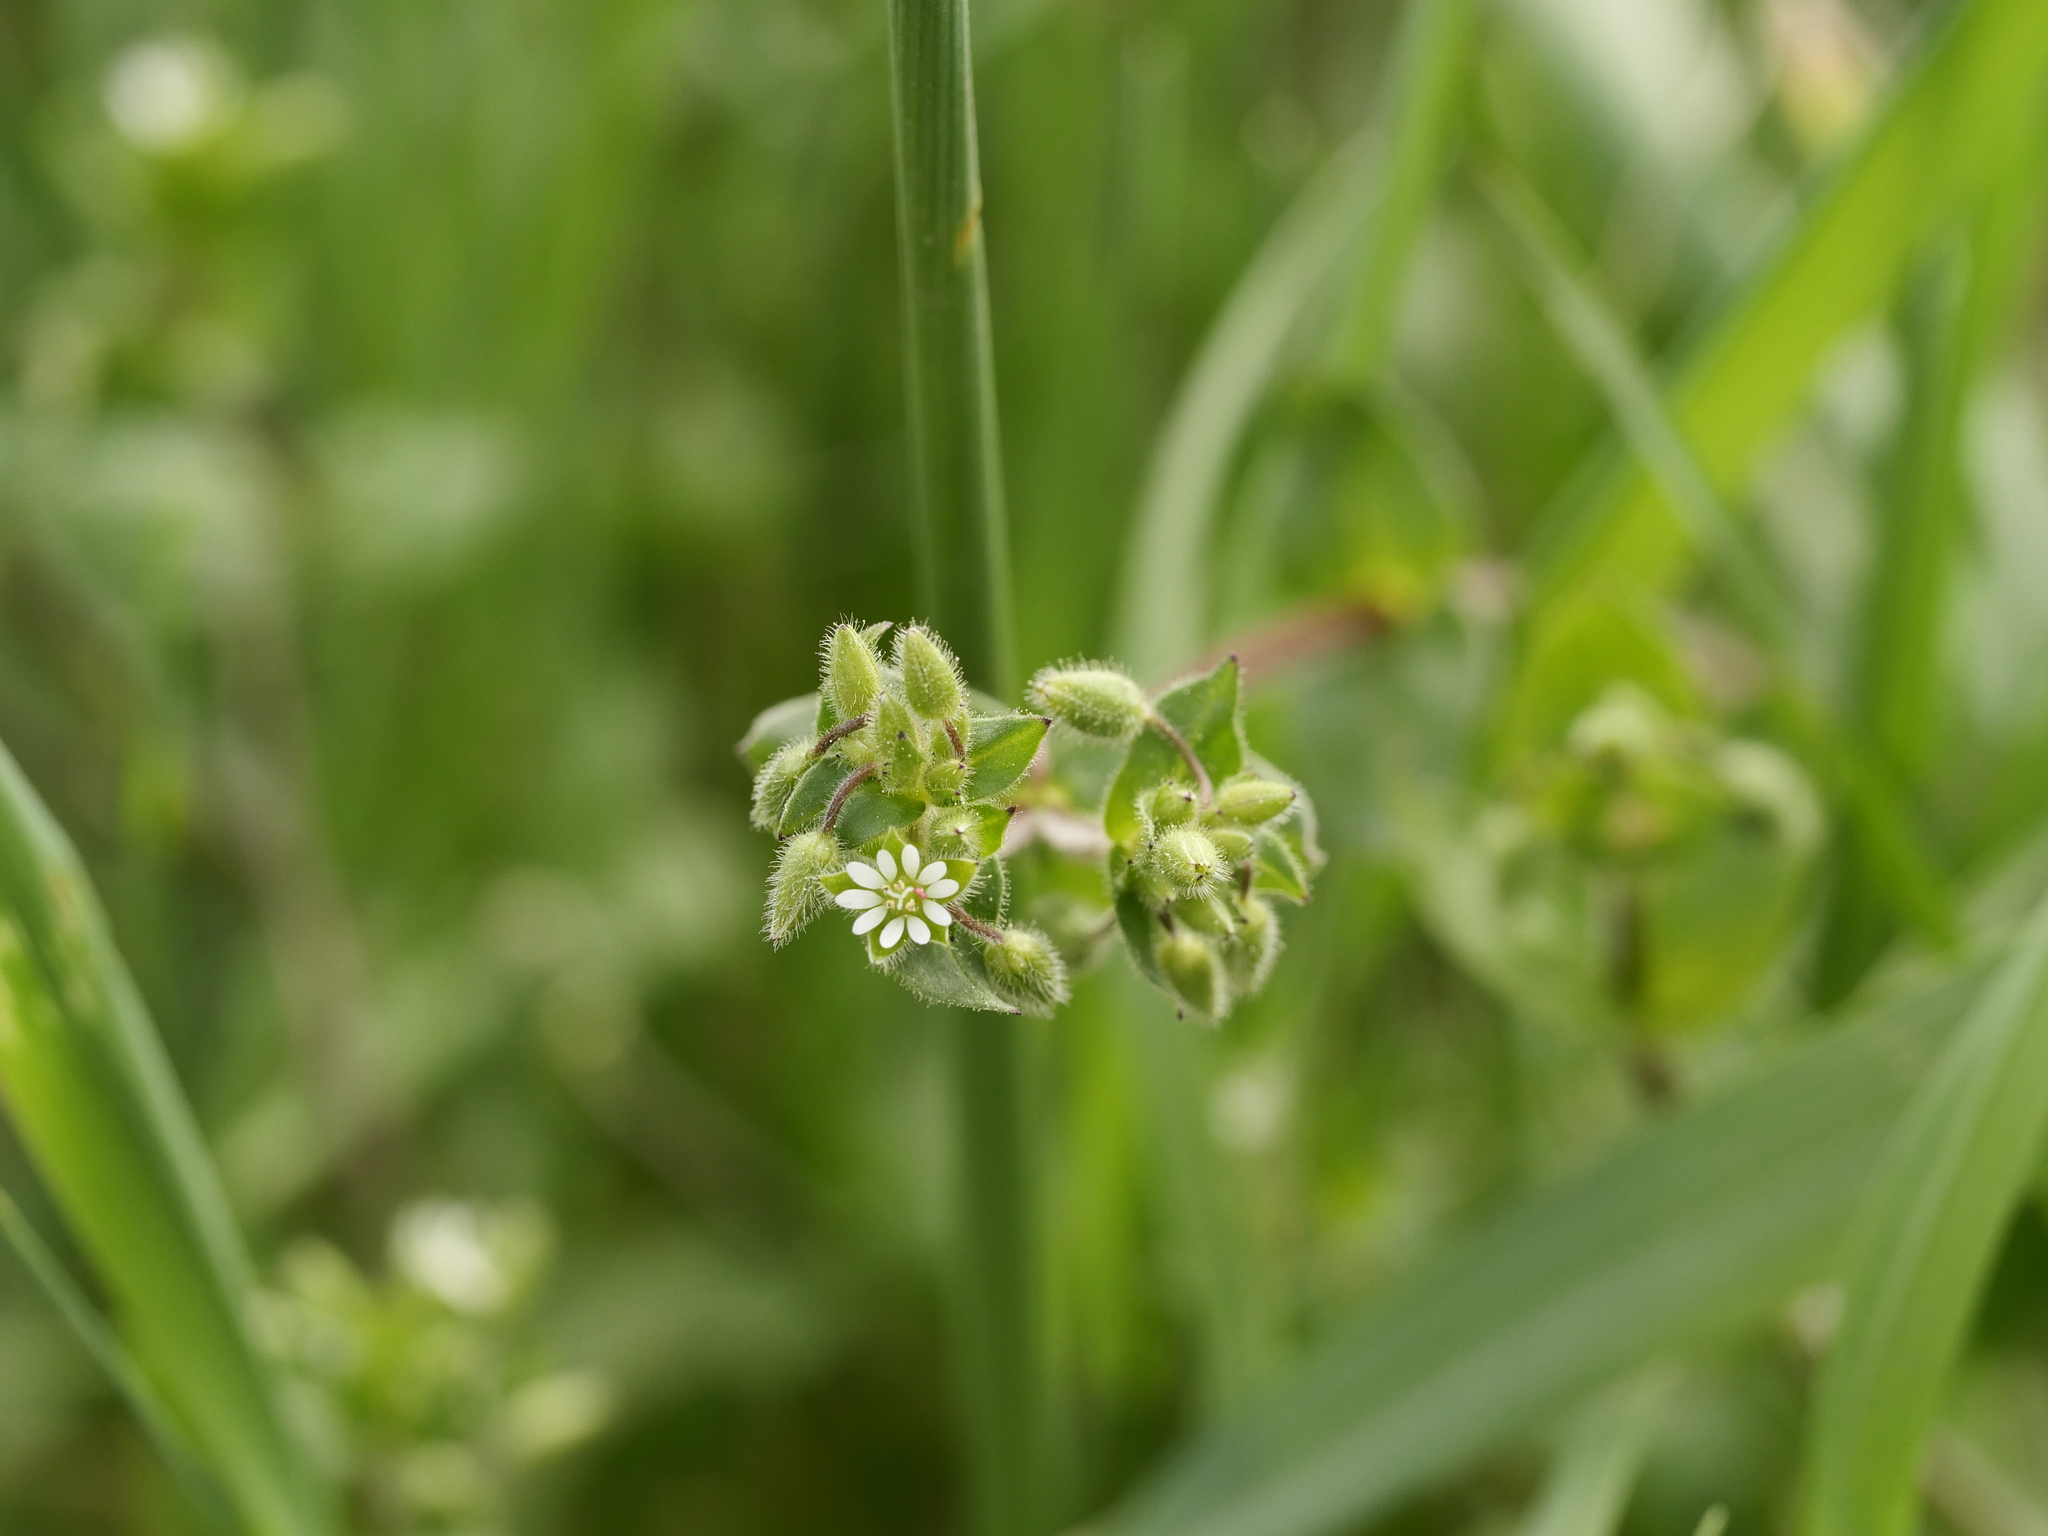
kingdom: Plantae
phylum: Tracheophyta
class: Magnoliopsida
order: Caryophyllales
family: Caryophyllaceae
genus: Stellaria
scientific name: Stellaria media
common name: Common chickweed
